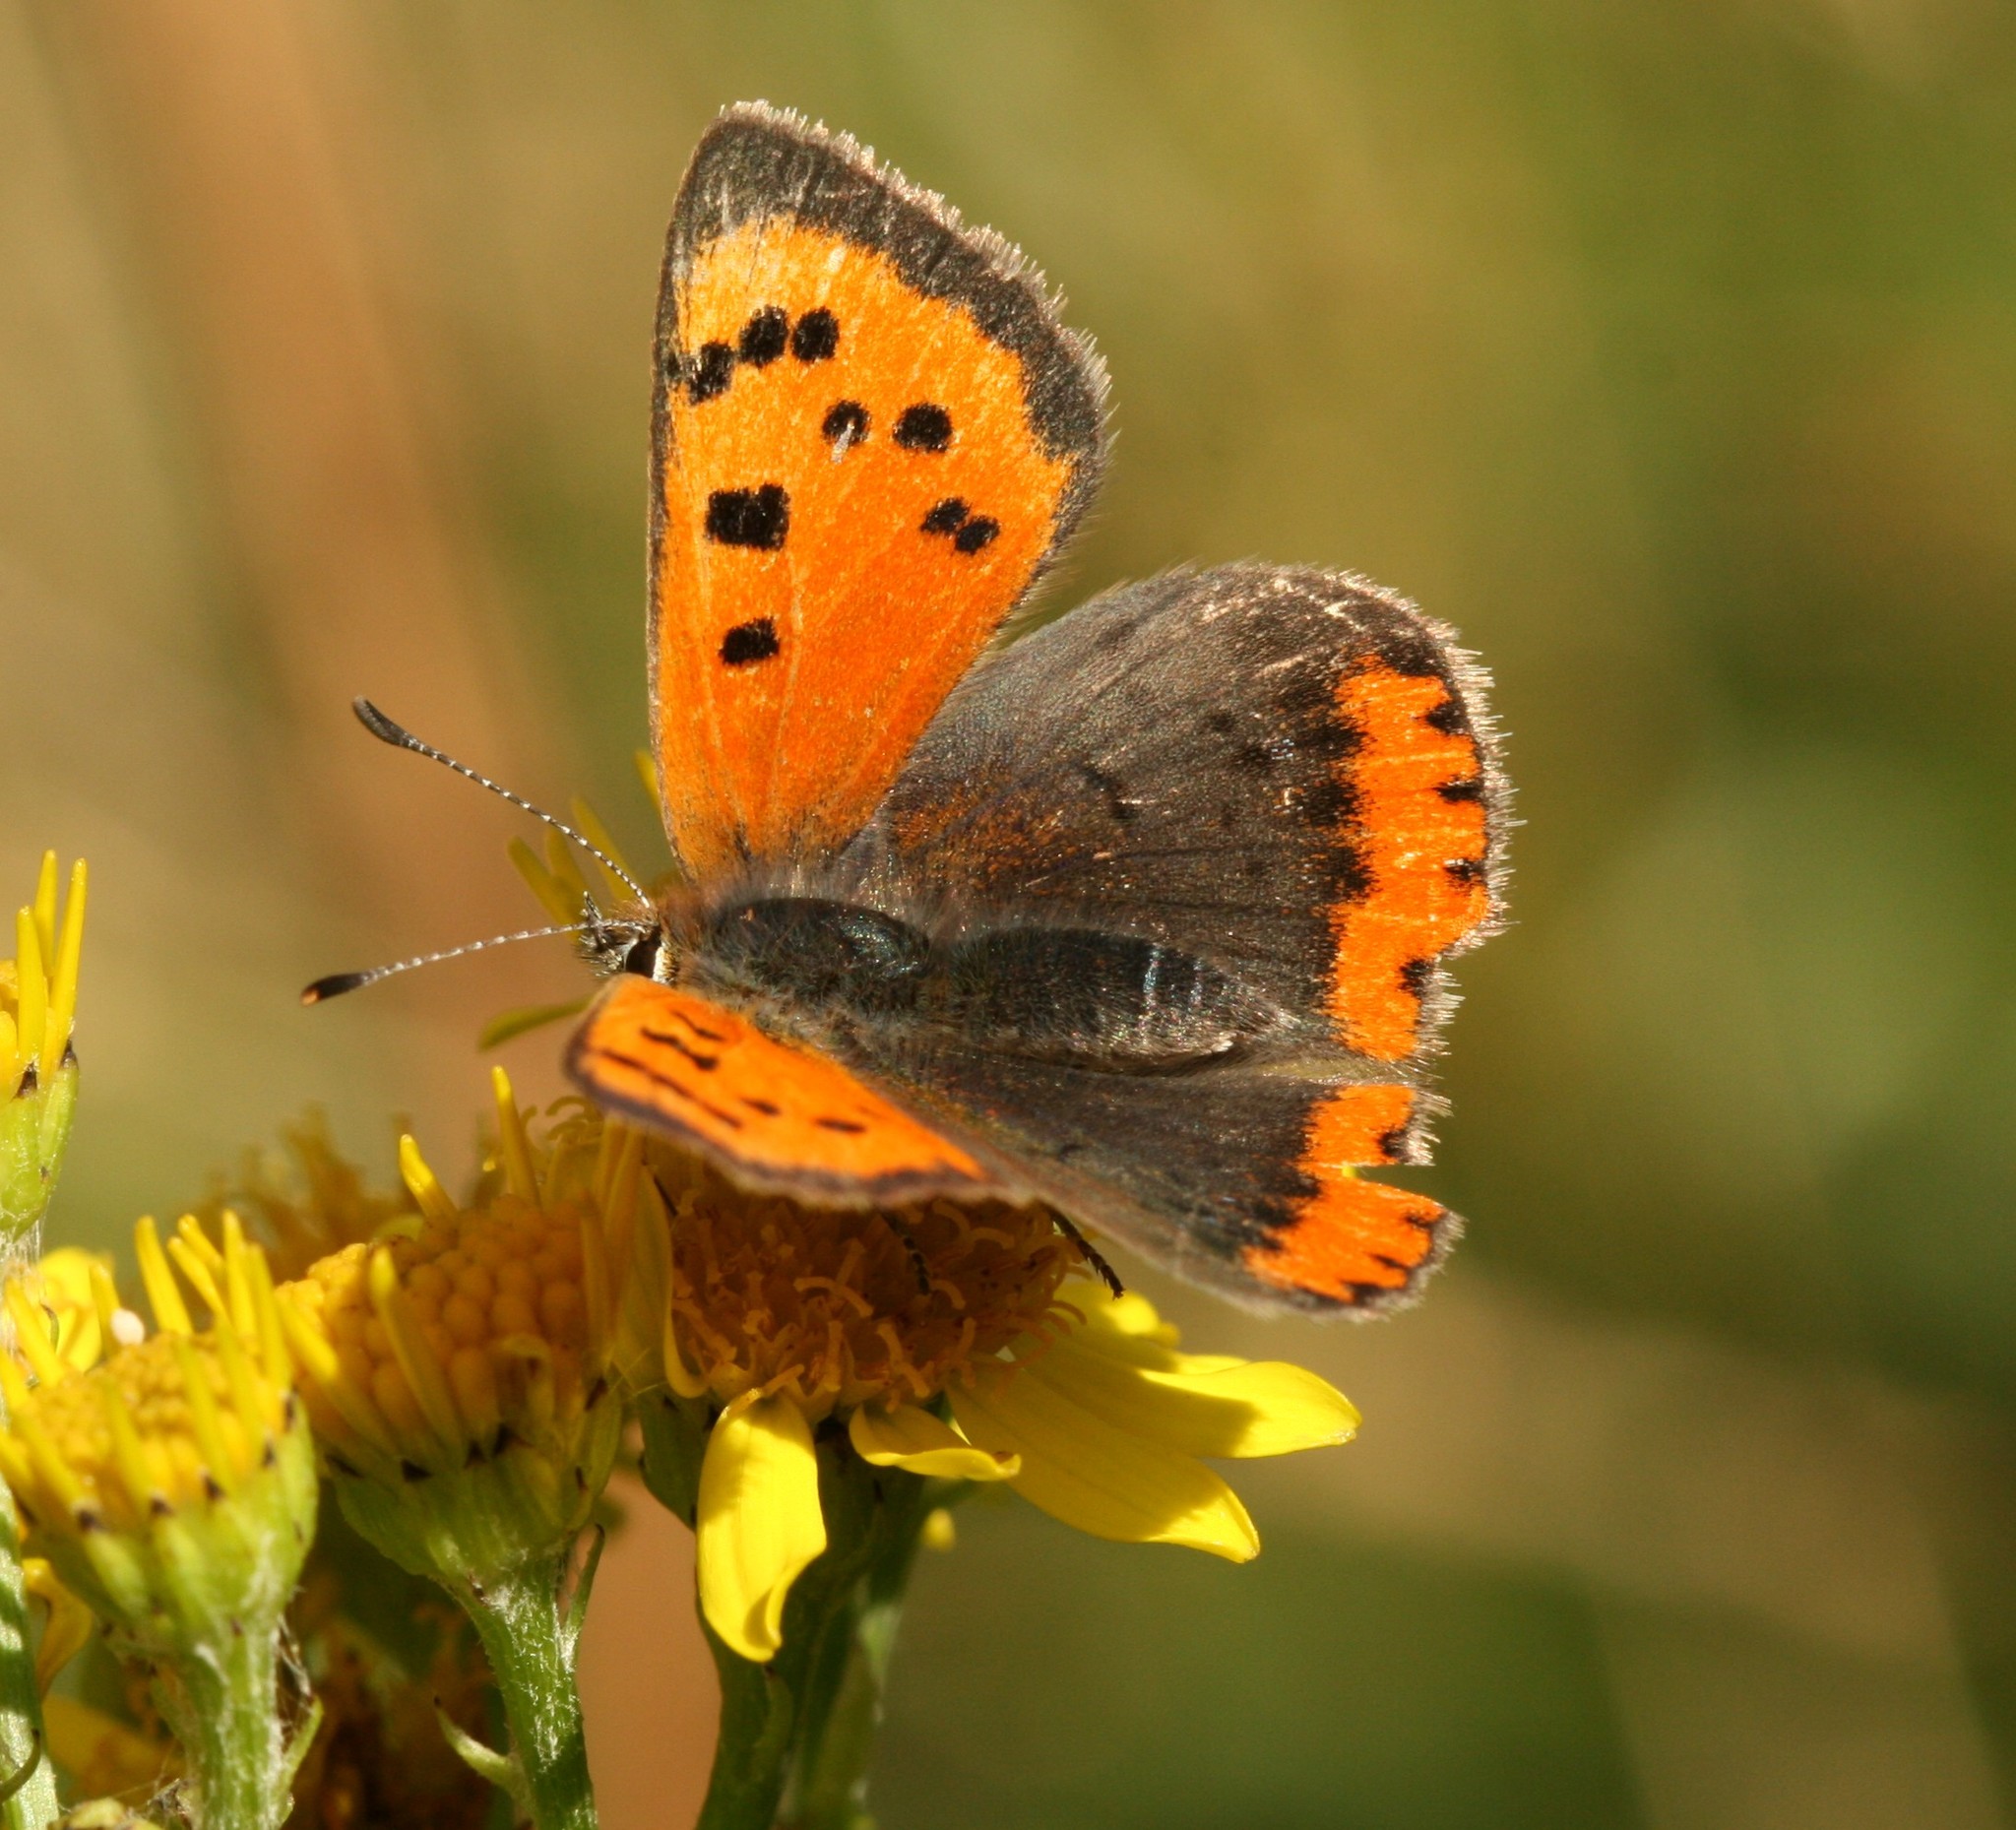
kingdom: Animalia
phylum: Arthropoda
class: Insecta
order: Lepidoptera
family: Lycaenidae
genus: Lycaena
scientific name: Lycaena phlaeas
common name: Small copper
